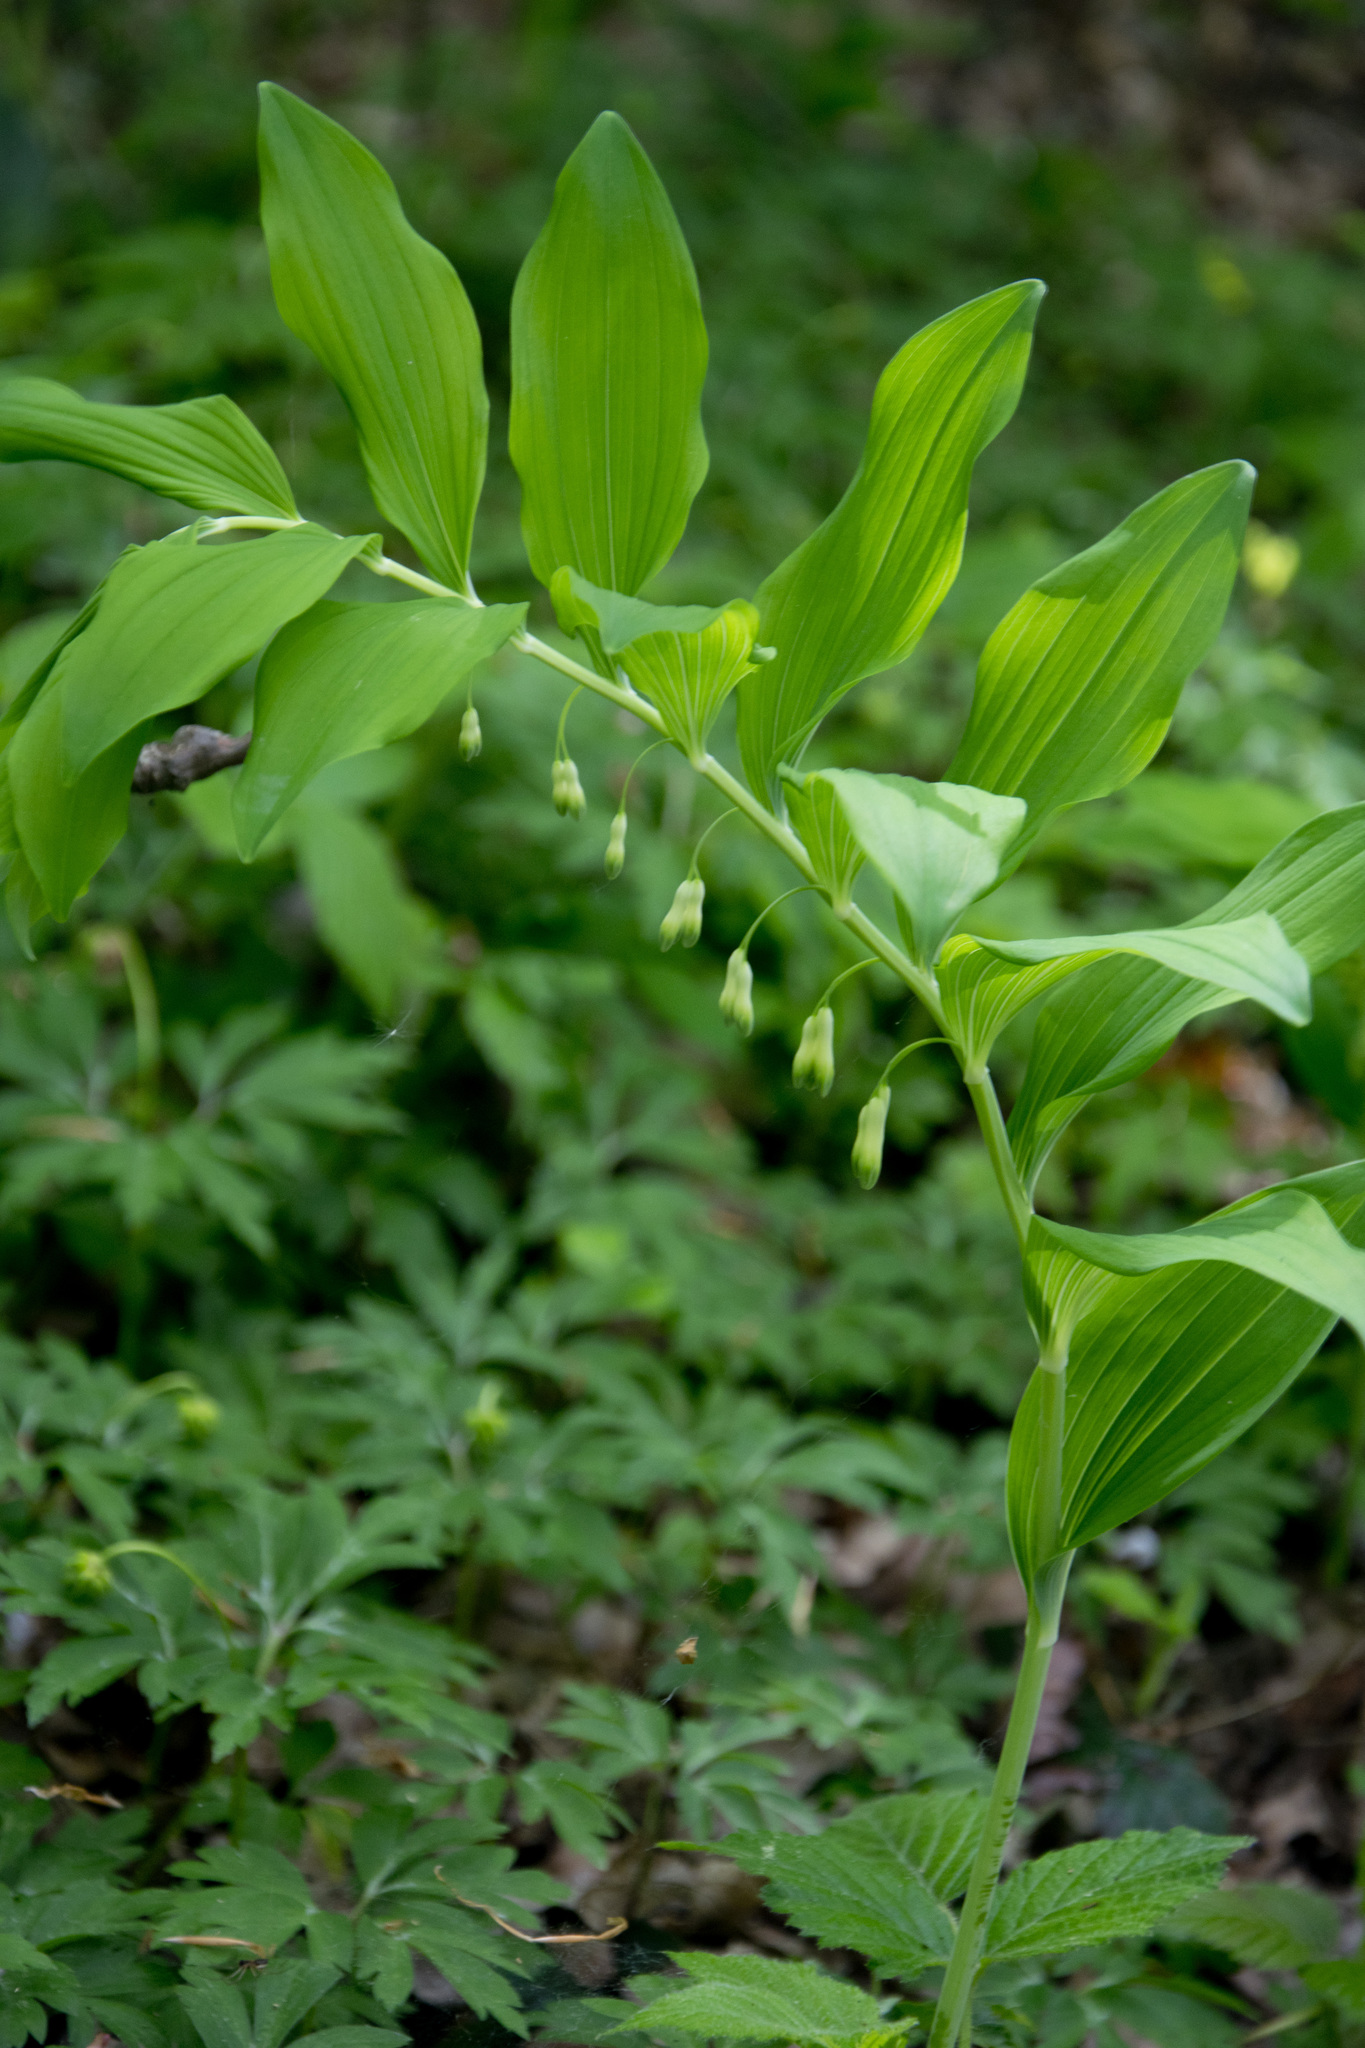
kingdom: Plantae
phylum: Tracheophyta
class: Liliopsida
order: Asparagales
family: Asparagaceae
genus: Polygonatum
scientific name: Polygonatum multiflorum
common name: Solomon's-seal
